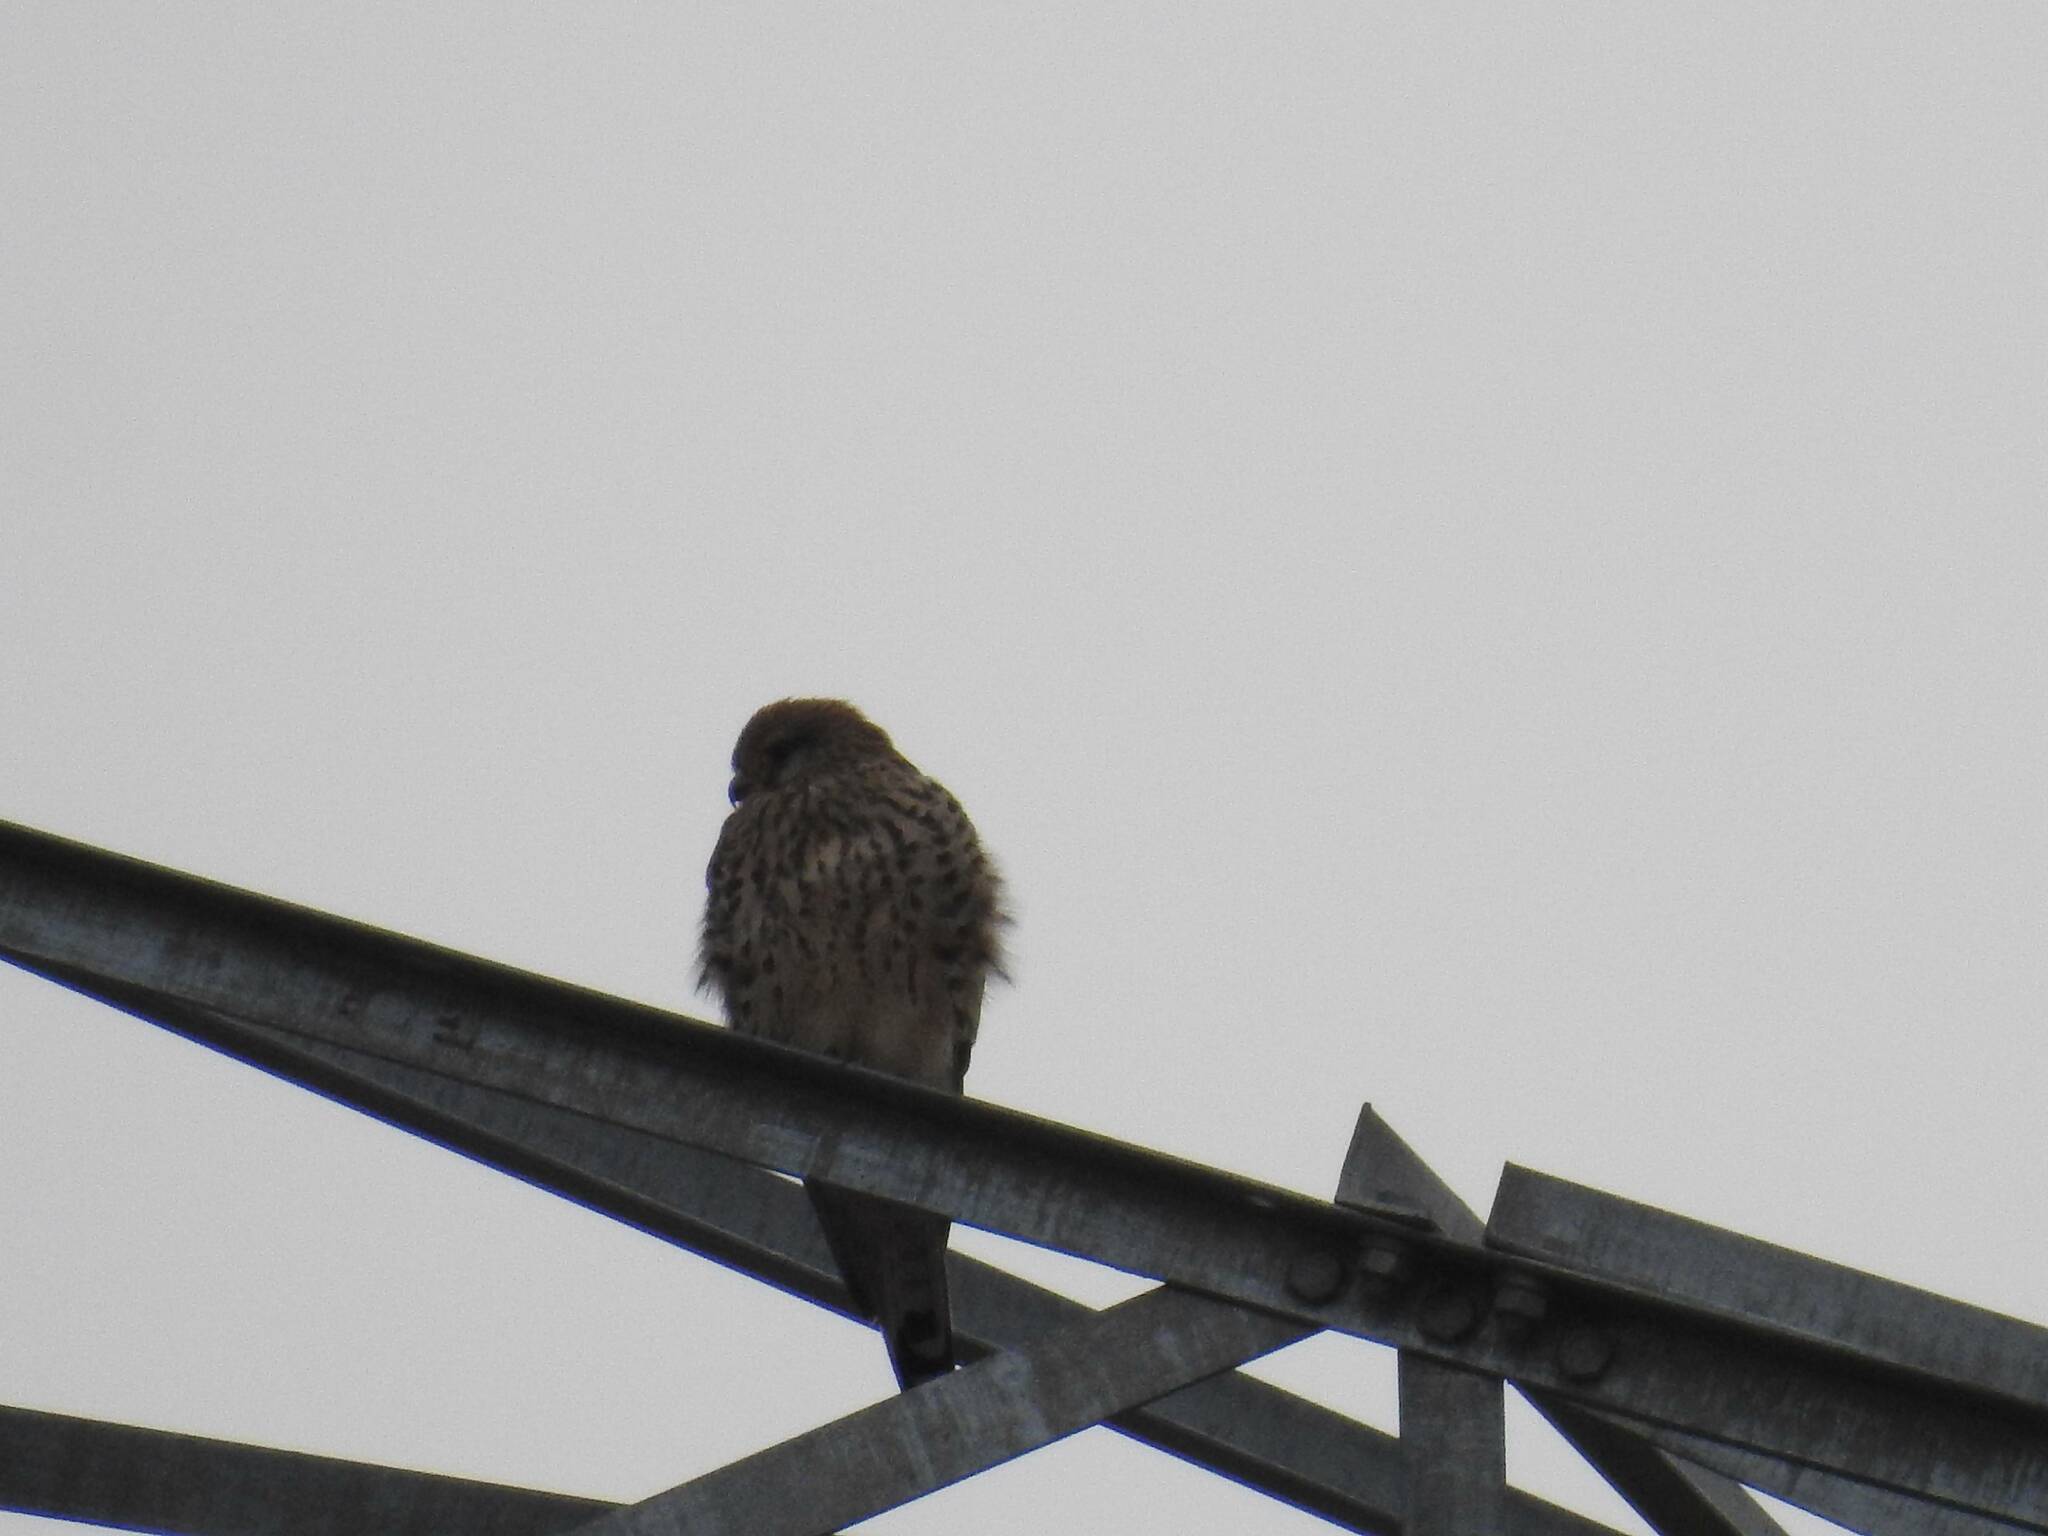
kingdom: Animalia
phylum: Chordata
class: Aves
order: Falconiformes
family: Falconidae
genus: Falco
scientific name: Falco tinnunculus
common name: Common kestrel
